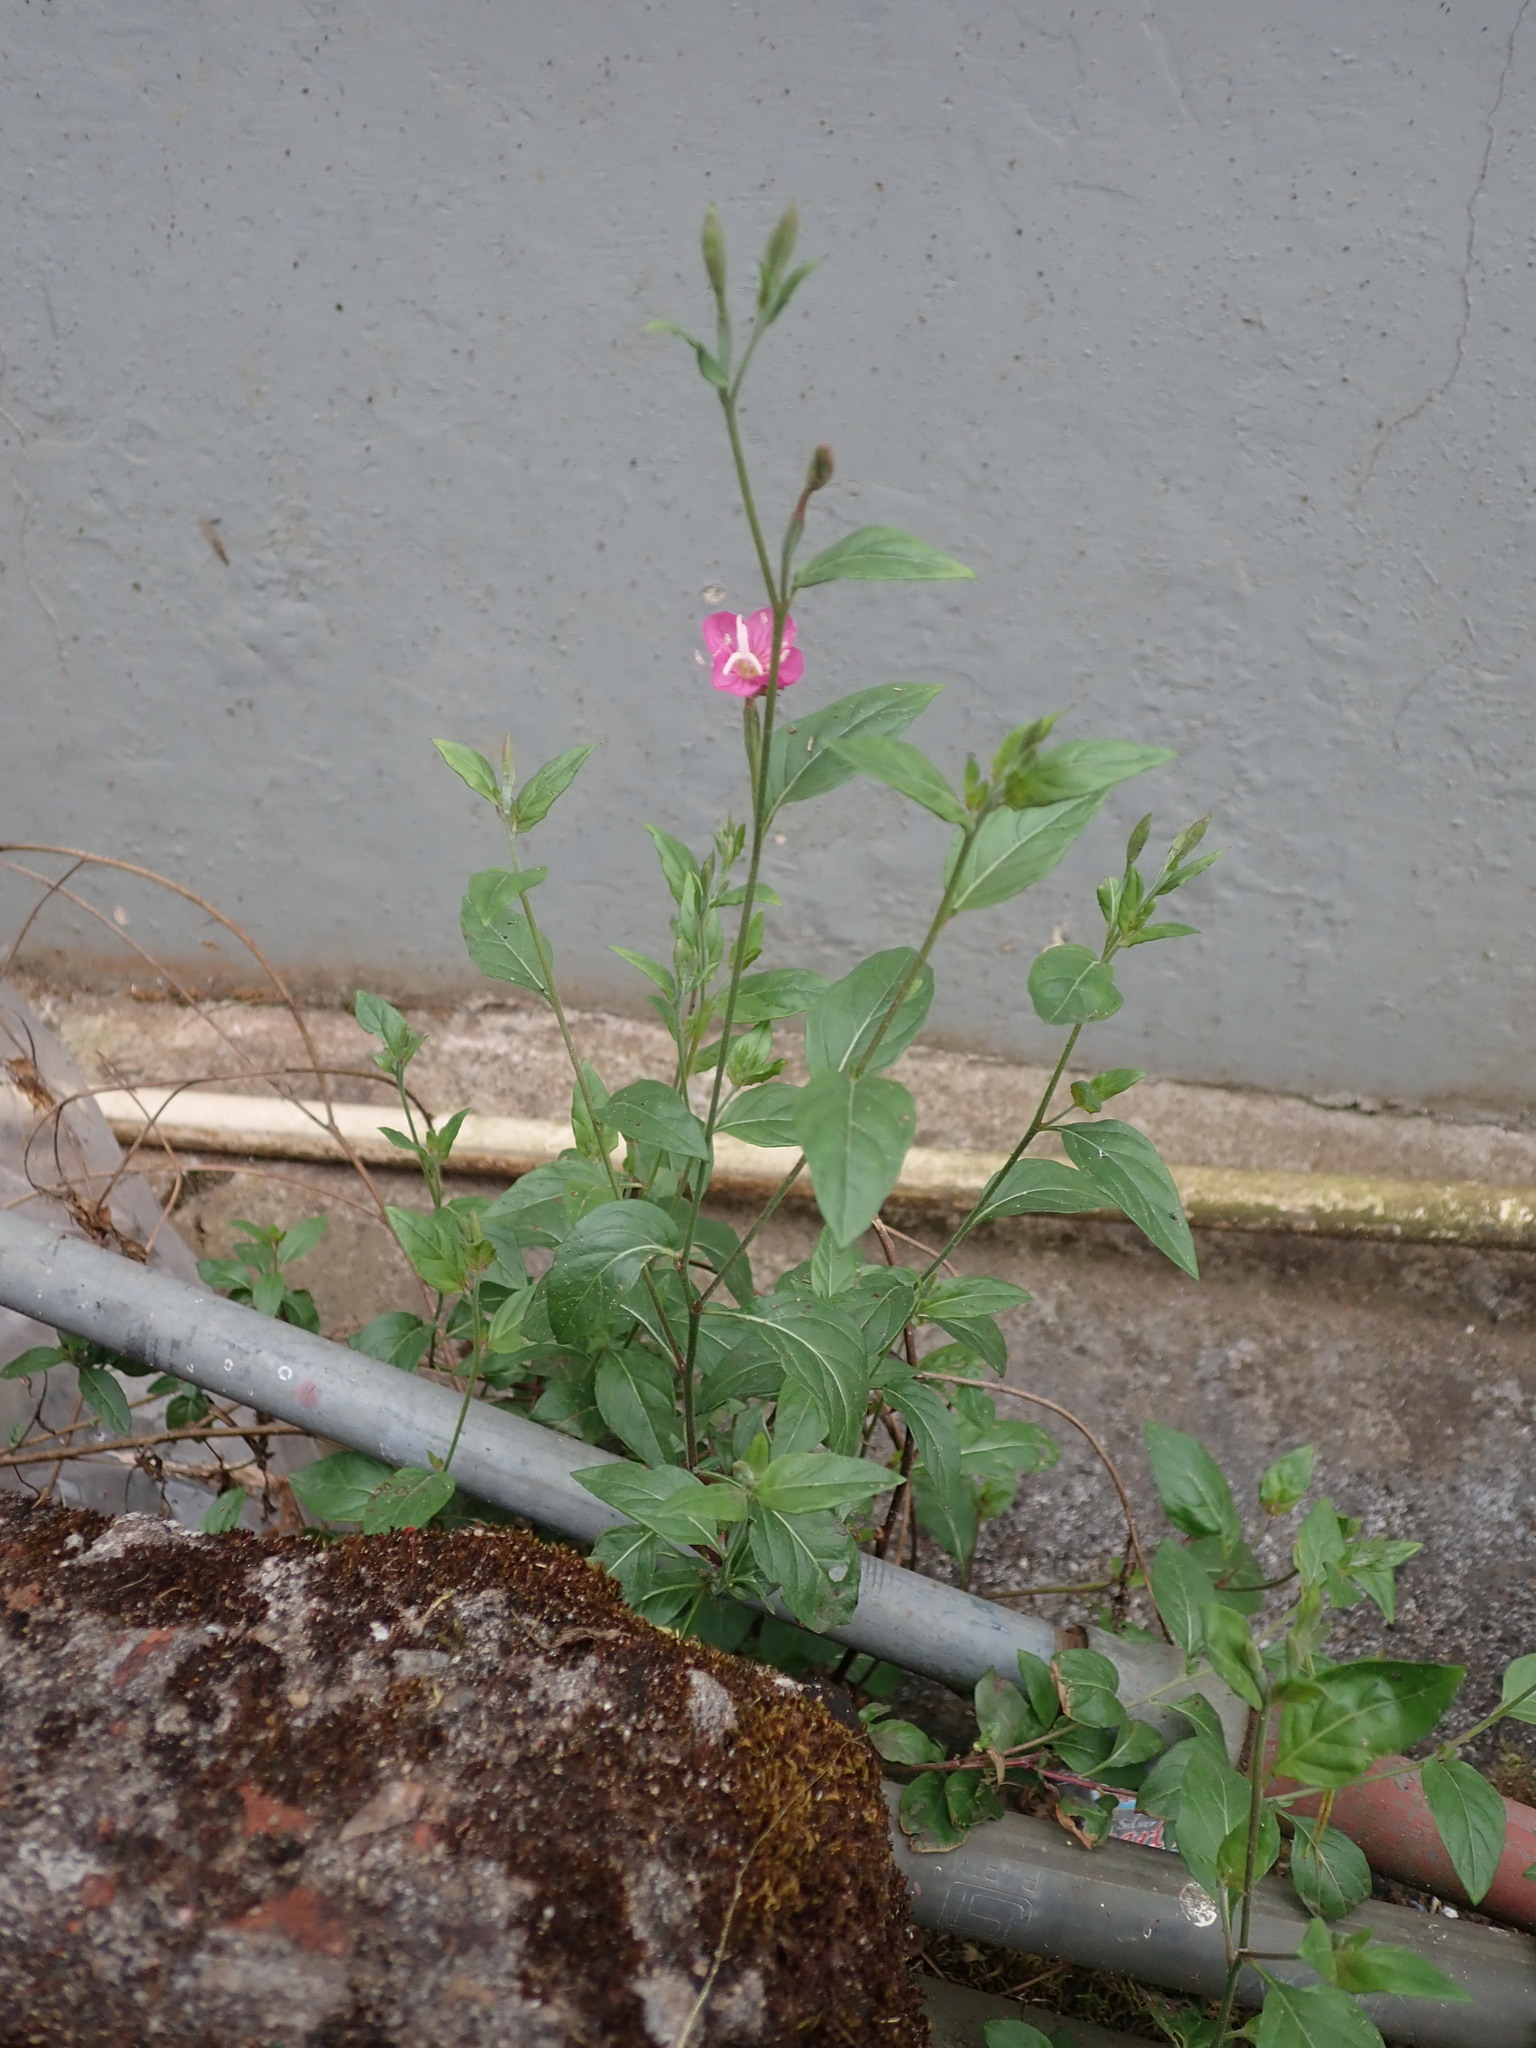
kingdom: Plantae
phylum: Tracheophyta
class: Magnoliopsida
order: Myrtales
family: Onagraceae
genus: Oenothera
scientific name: Oenothera rosea
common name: Rosy evening-primrose
